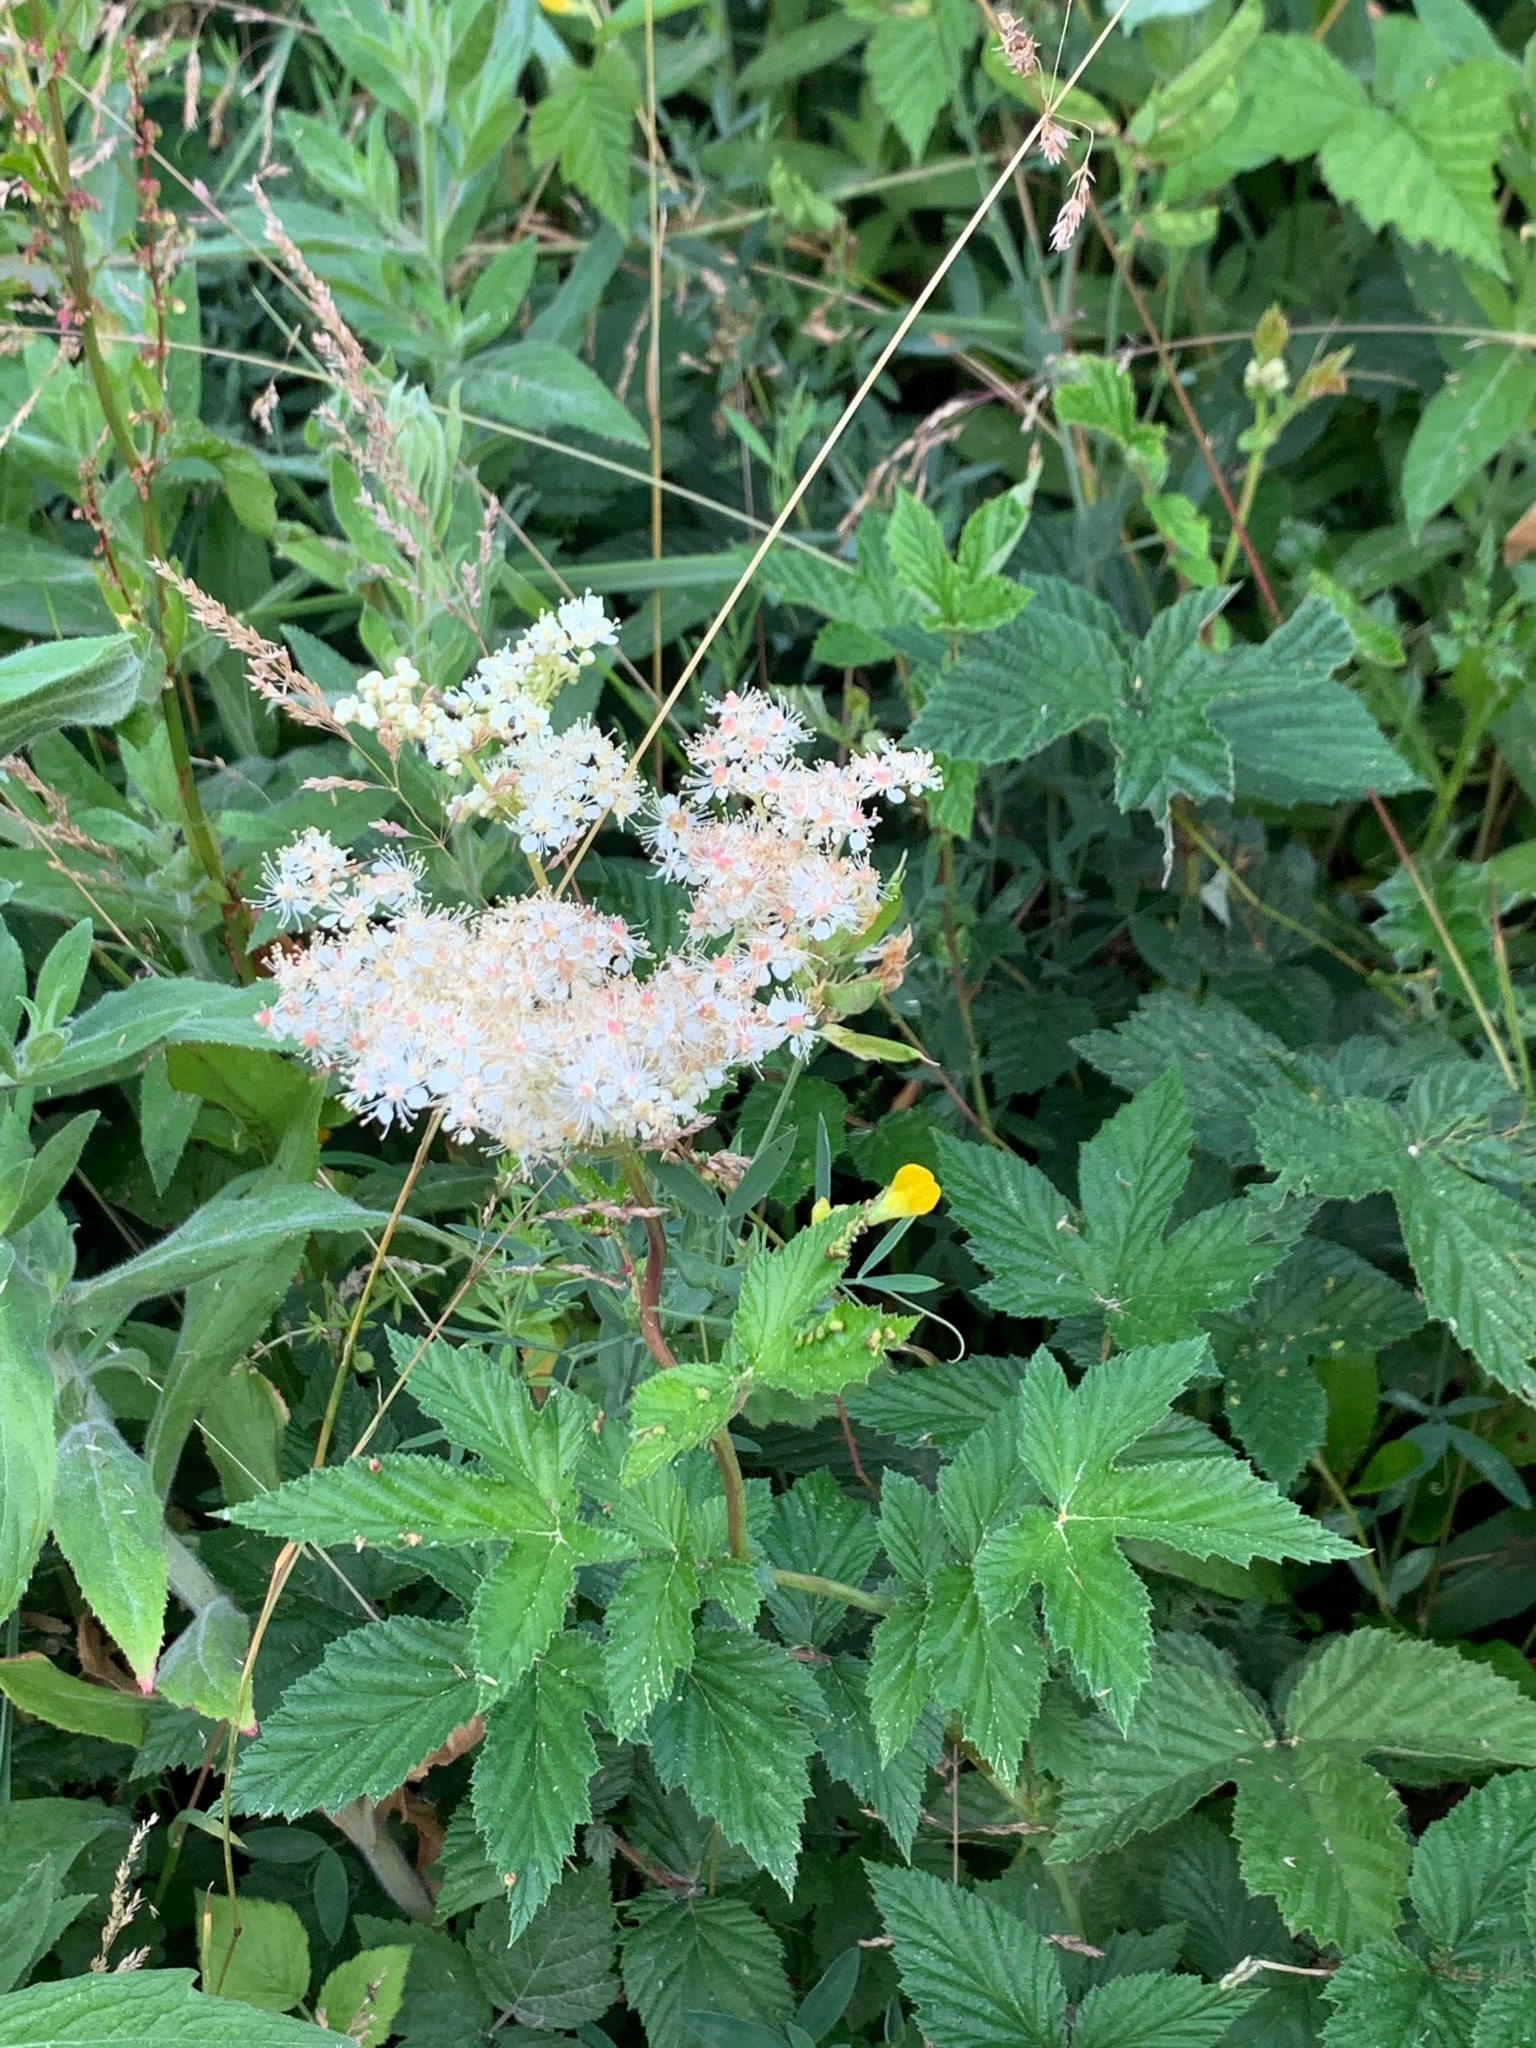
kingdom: Plantae
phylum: Tracheophyta
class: Magnoliopsida
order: Rosales
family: Rosaceae
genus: Filipendula
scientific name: Filipendula ulmaria
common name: Meadowsweet
